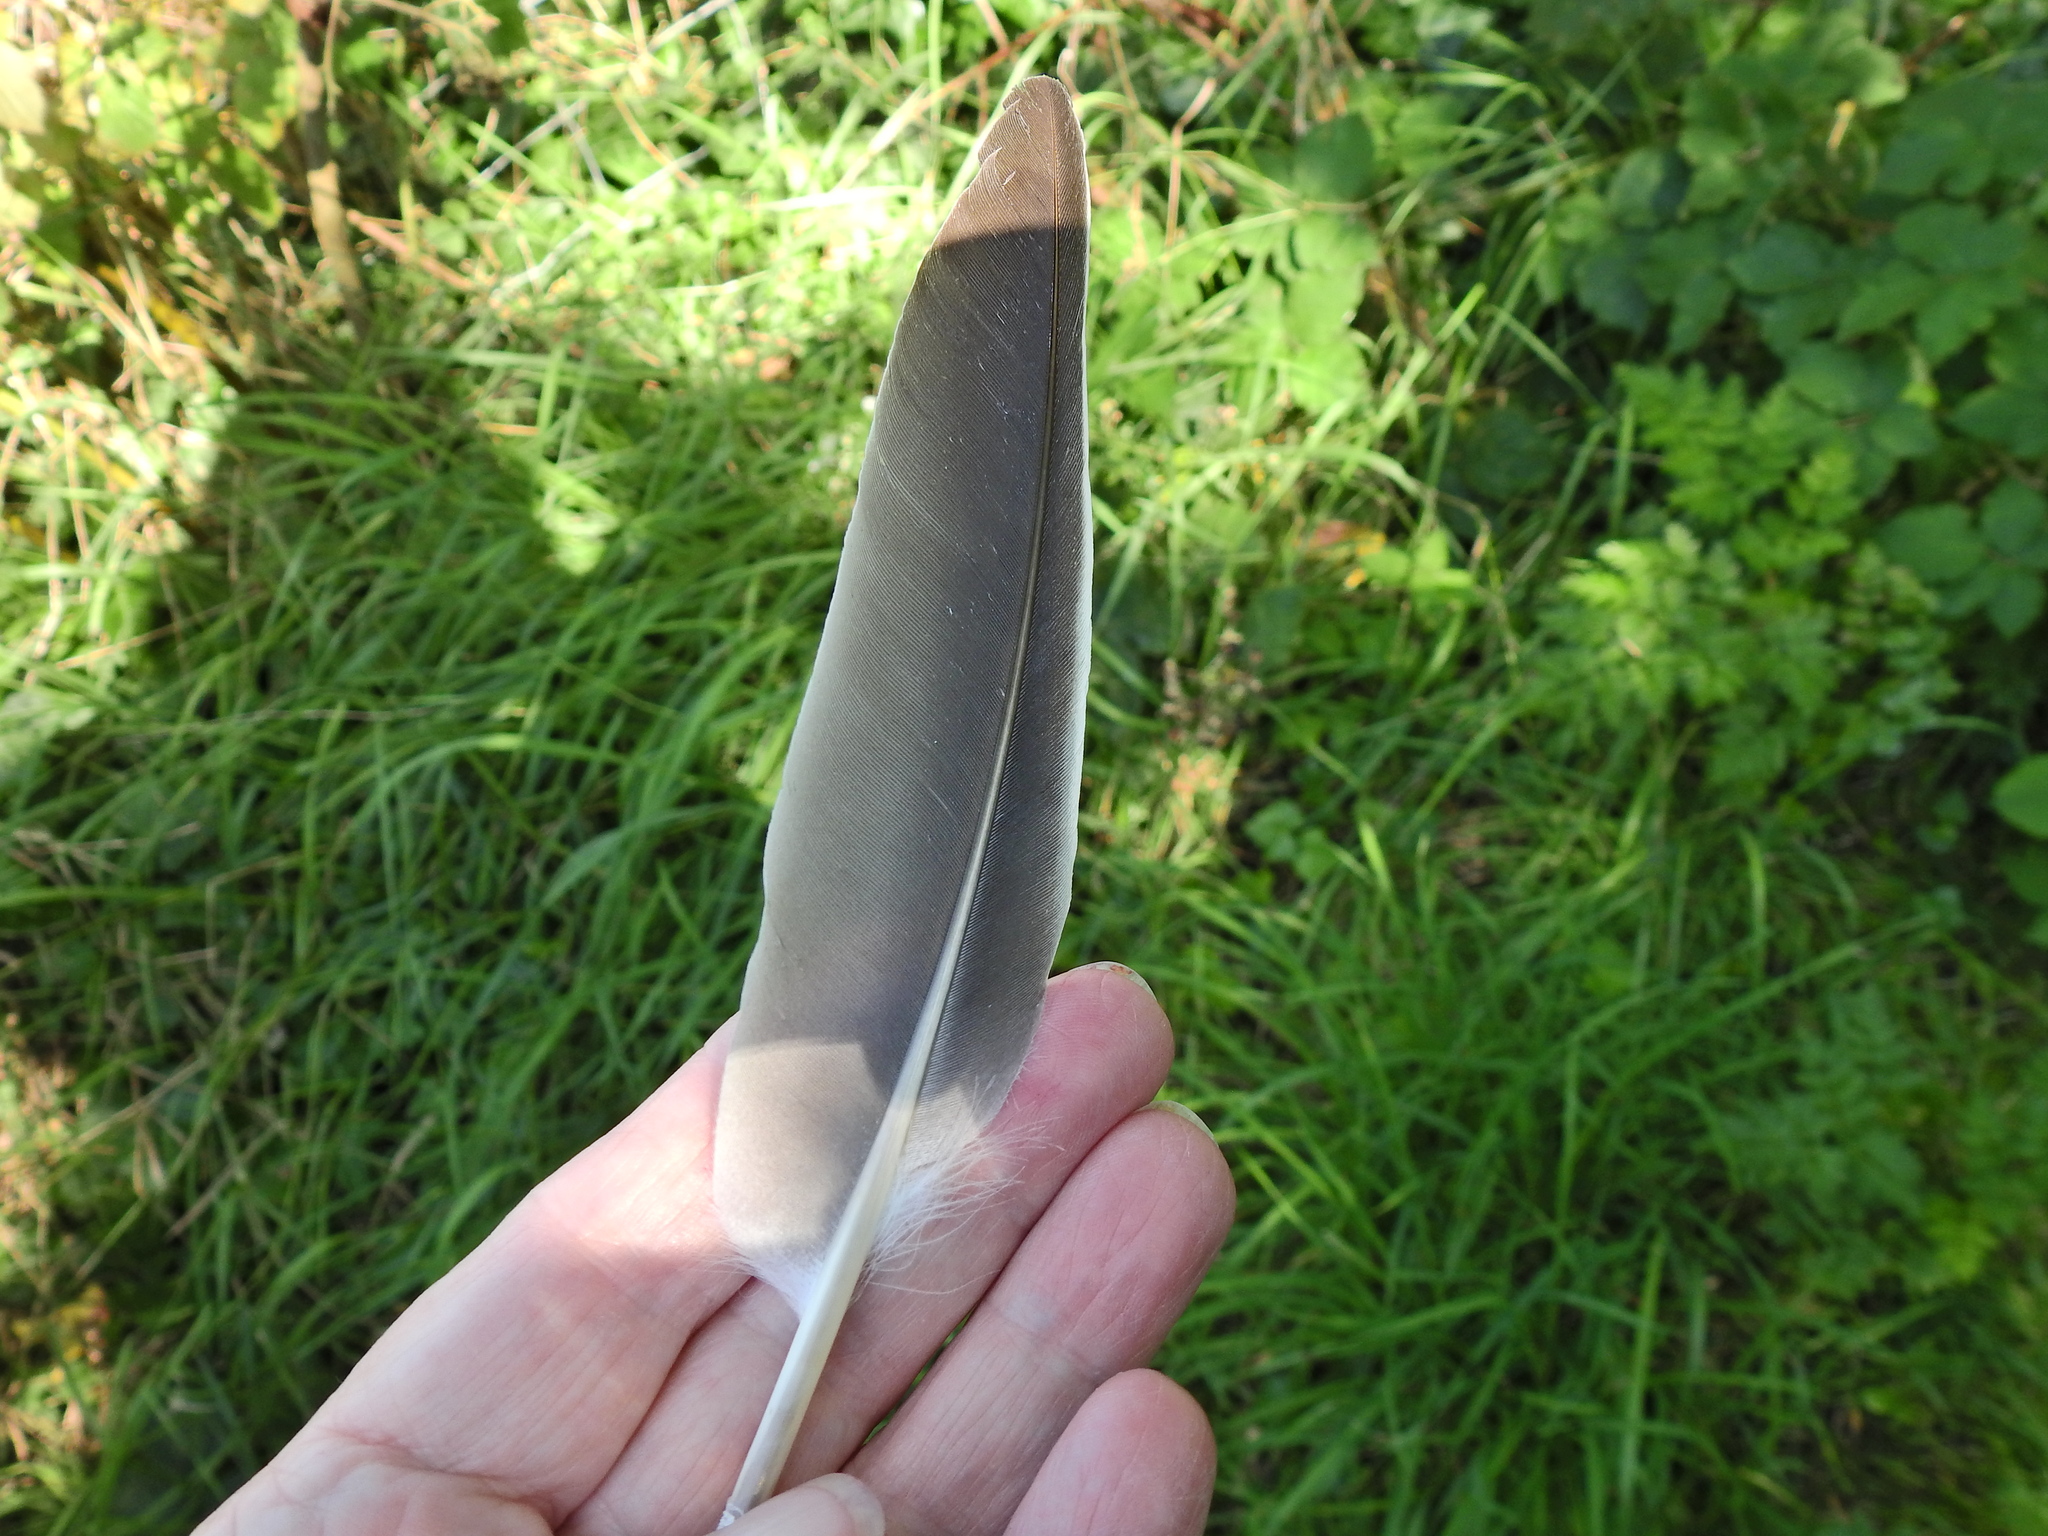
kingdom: Animalia
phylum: Chordata
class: Aves
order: Columbiformes
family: Columbidae
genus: Columba
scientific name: Columba palumbus
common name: Common wood pigeon
